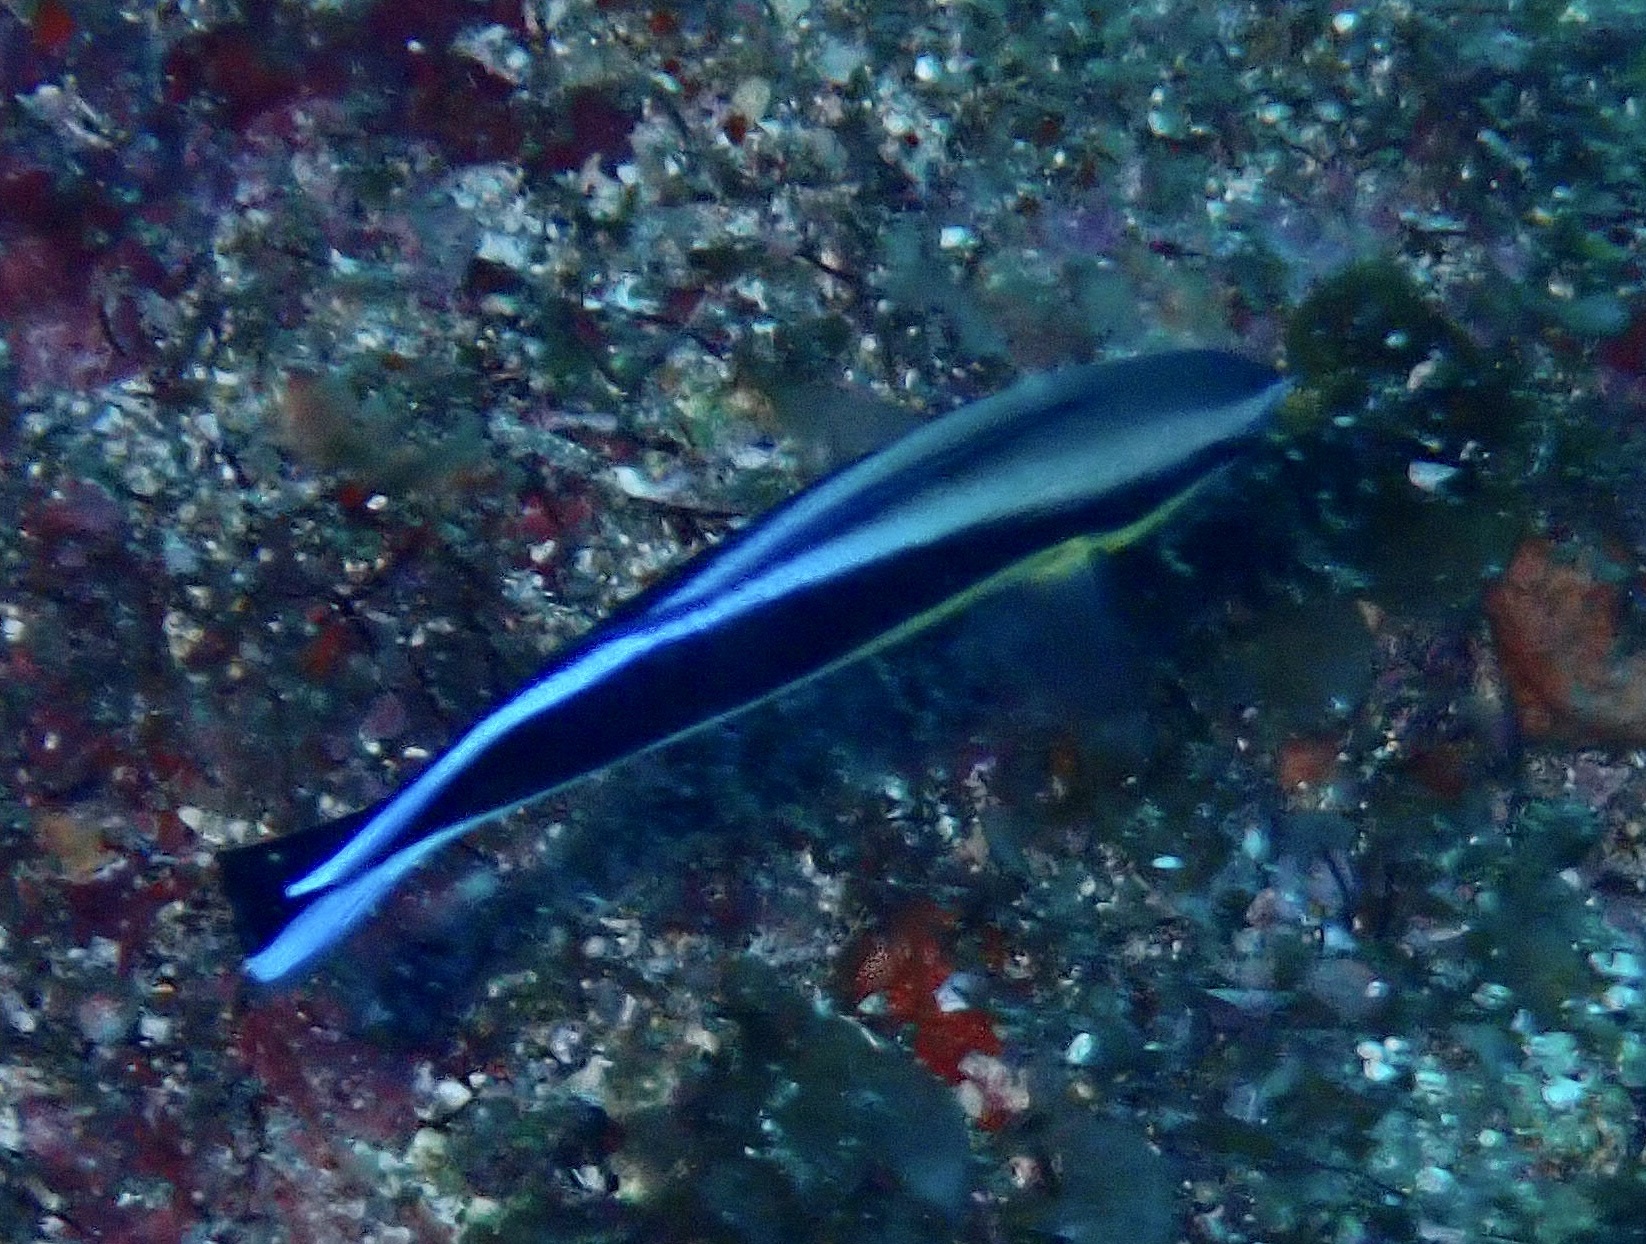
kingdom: Animalia
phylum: Chordata
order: Perciformes
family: Labridae
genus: Labroides
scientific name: Labroides dimidiatus
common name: Blue diesel wrasse
